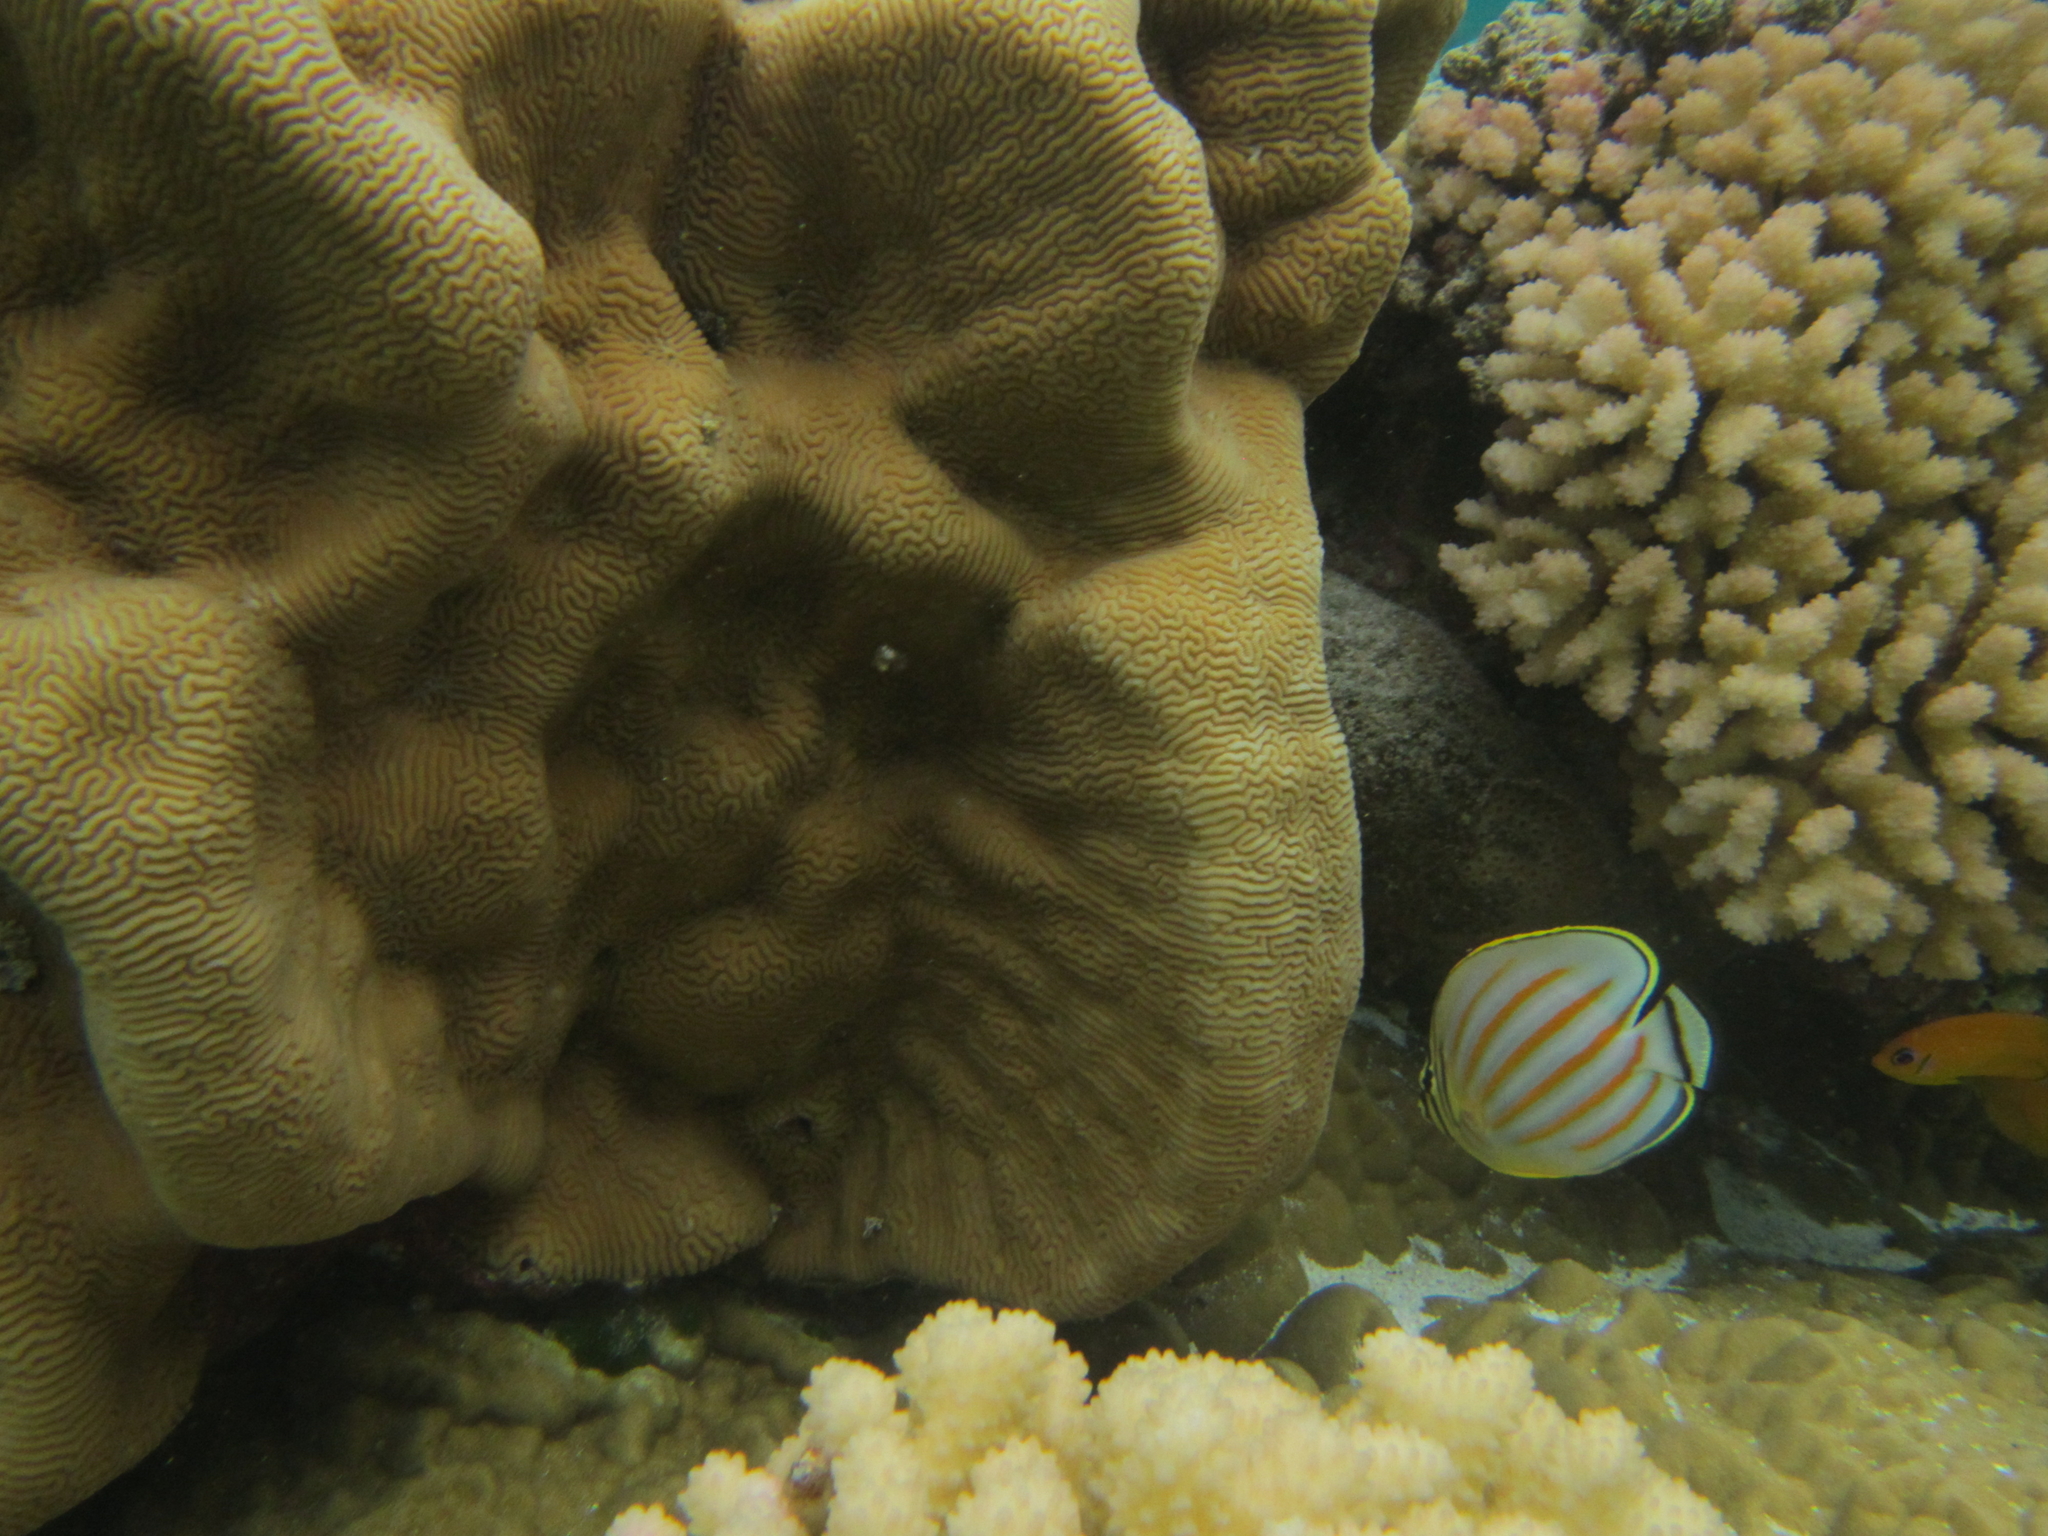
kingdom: Animalia
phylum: Chordata
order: Perciformes
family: Chaetodontidae
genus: Chaetodon
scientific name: Chaetodon ornatissimus
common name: Ornate butterflyfish
